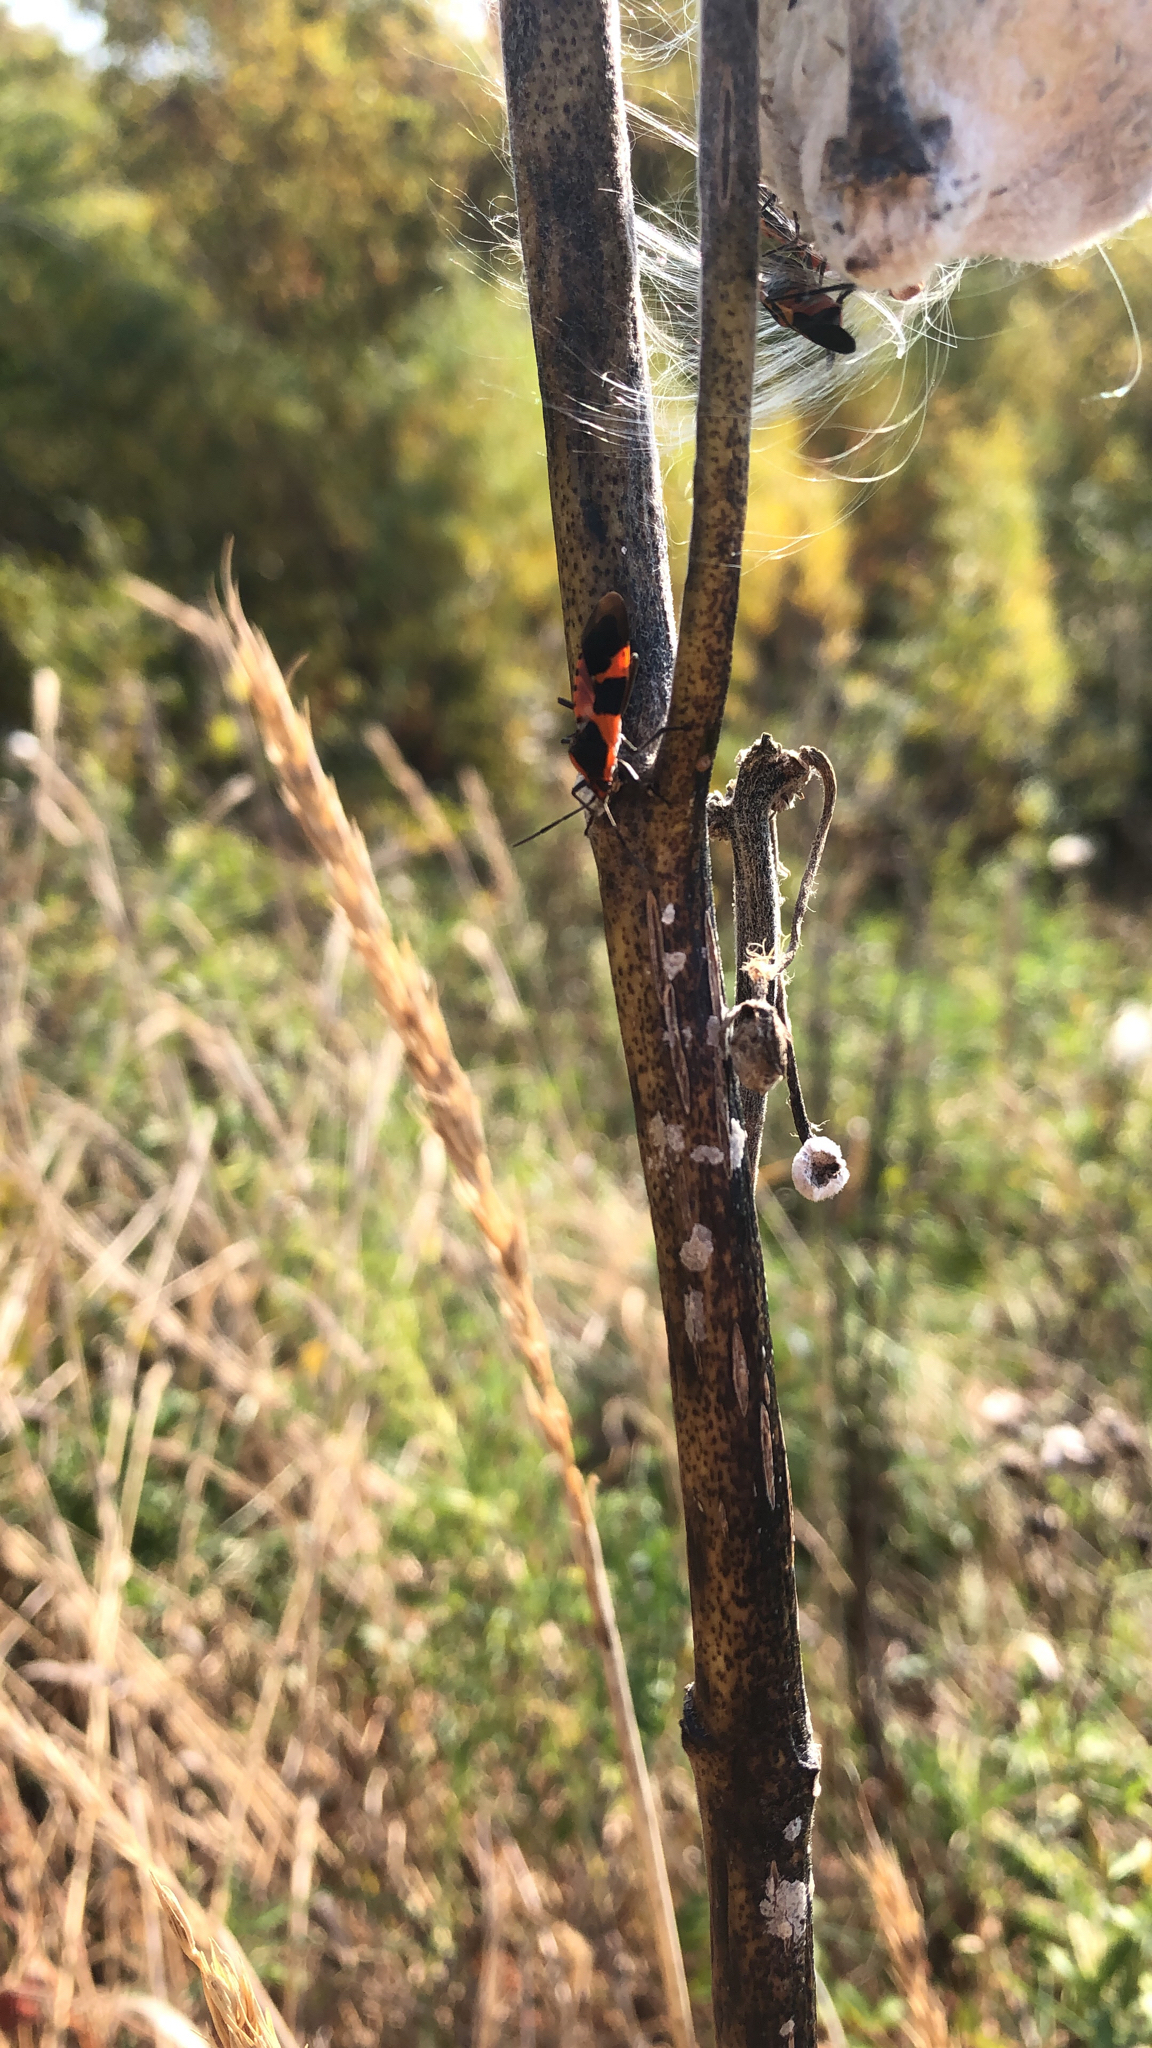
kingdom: Animalia
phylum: Arthropoda
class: Insecta
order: Hemiptera
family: Lygaeidae
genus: Oncopeltus
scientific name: Oncopeltus fasciatus
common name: Large milkweed bug
